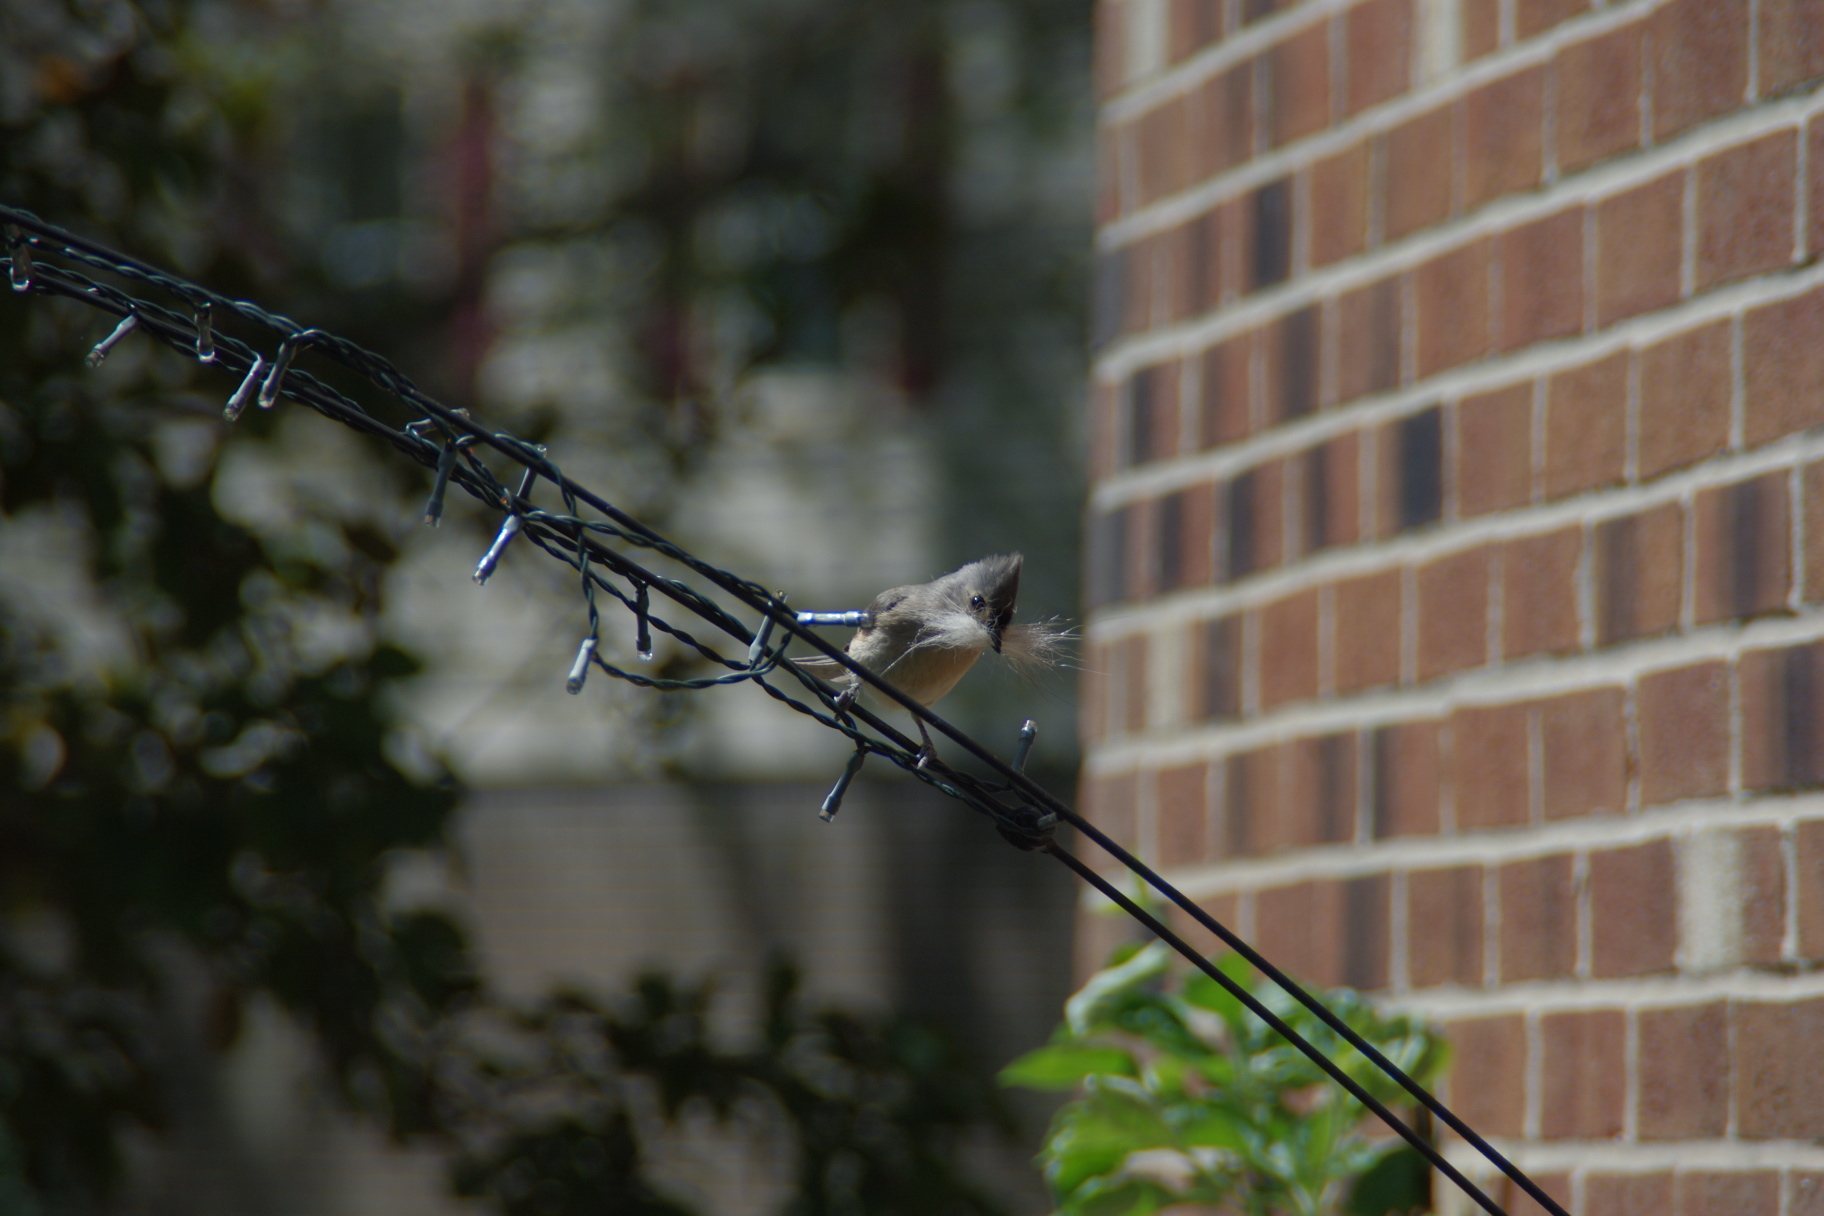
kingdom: Animalia
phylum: Chordata
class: Aves
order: Passeriformes
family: Paridae
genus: Baeolophus
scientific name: Baeolophus bicolor
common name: Tufted titmouse
